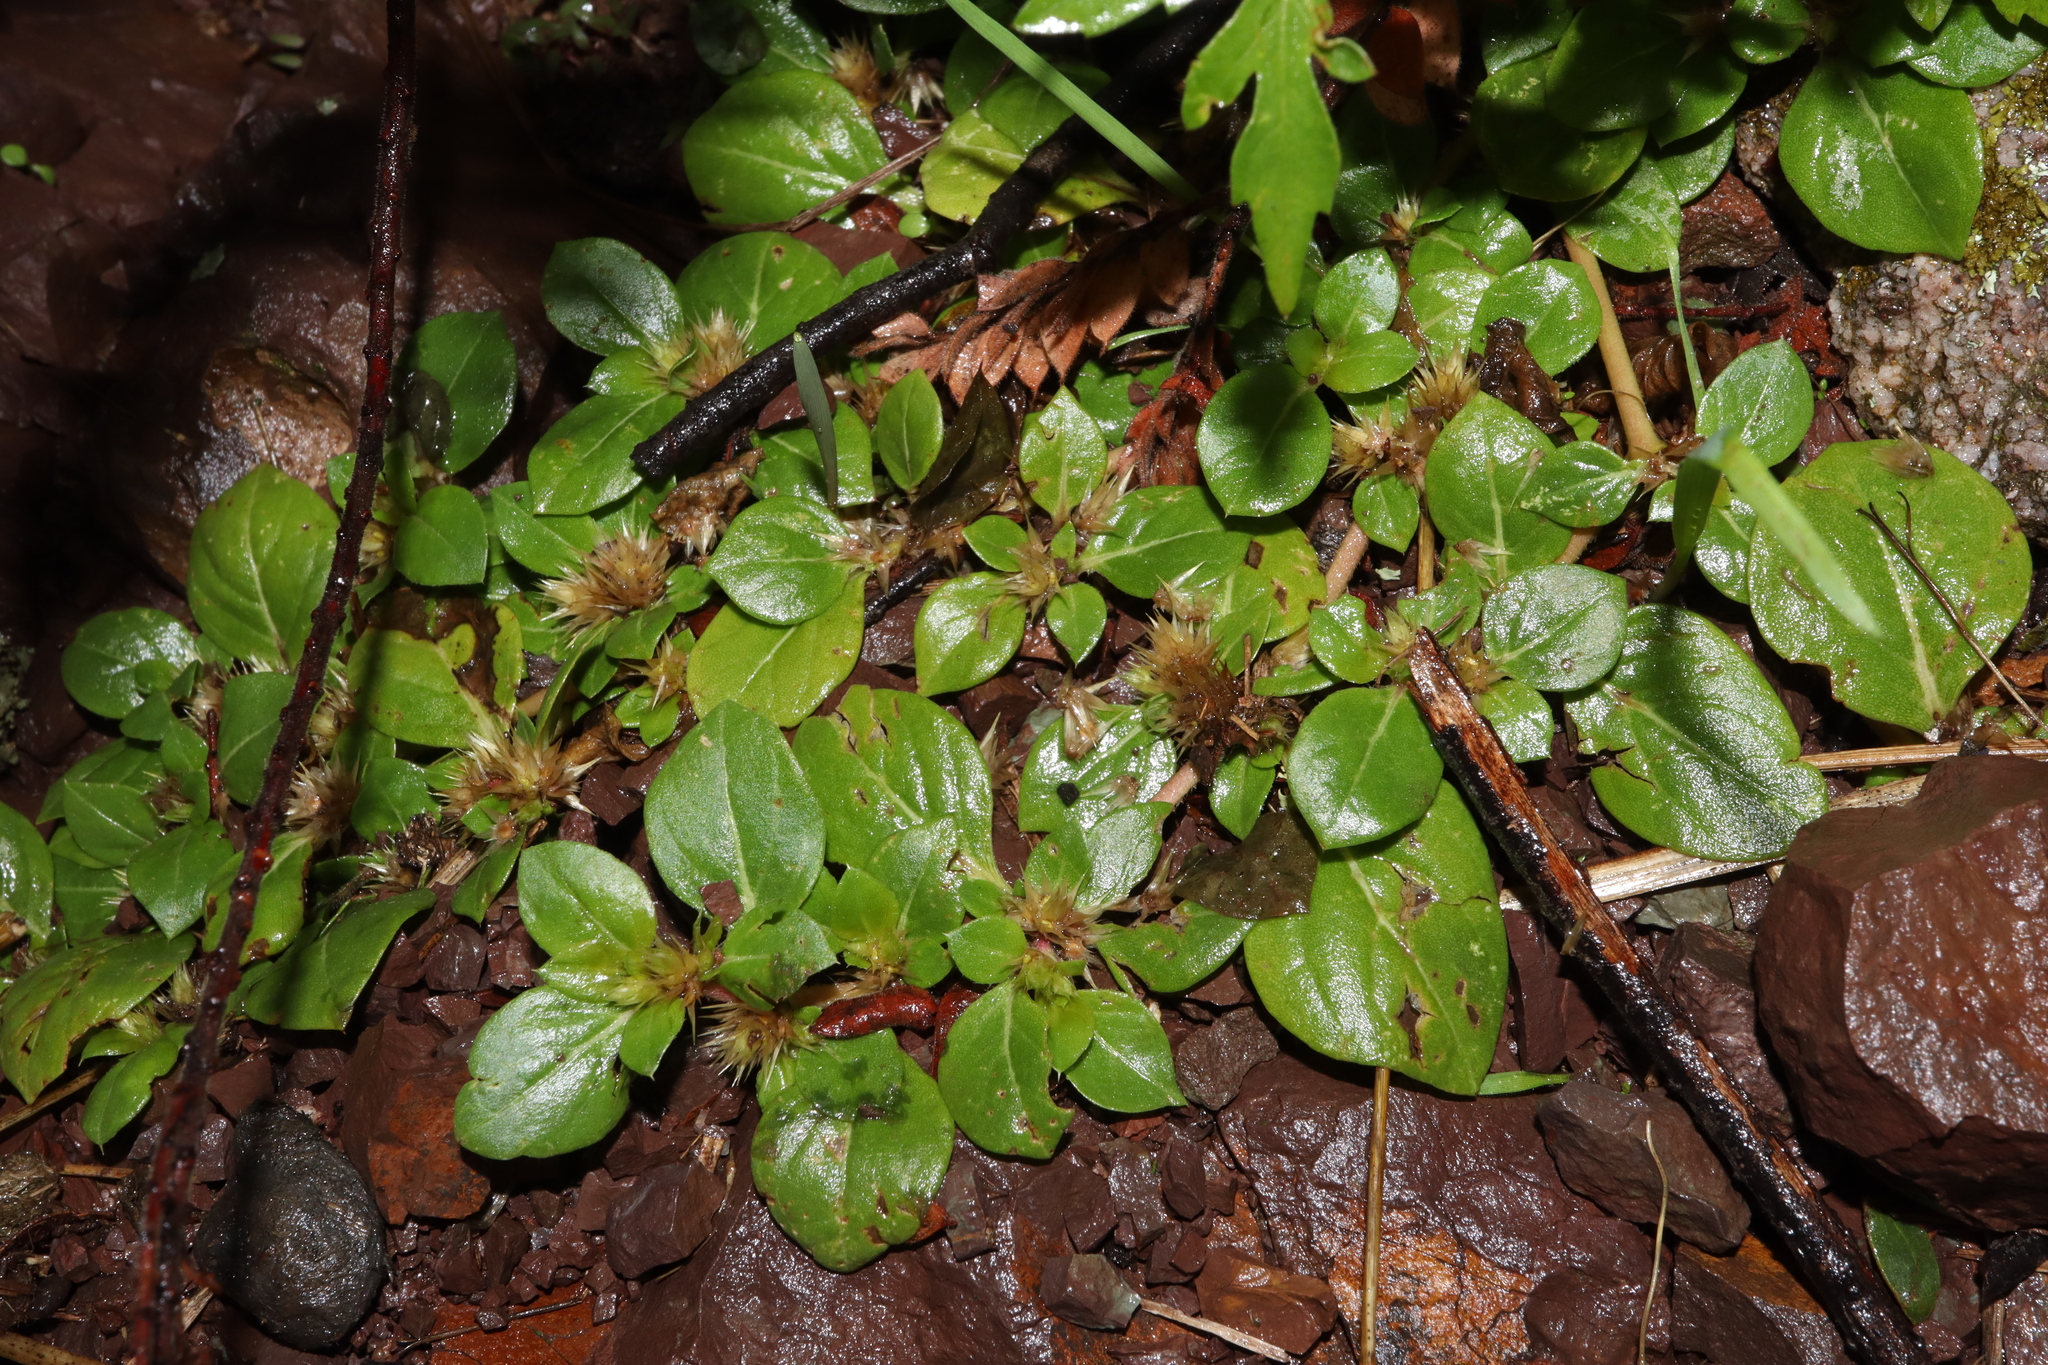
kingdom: Plantae
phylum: Tracheophyta
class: Magnoliopsida
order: Caryophyllales
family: Amaranthaceae
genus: Alternanthera
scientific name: Alternanthera pungens
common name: Khakiweed
